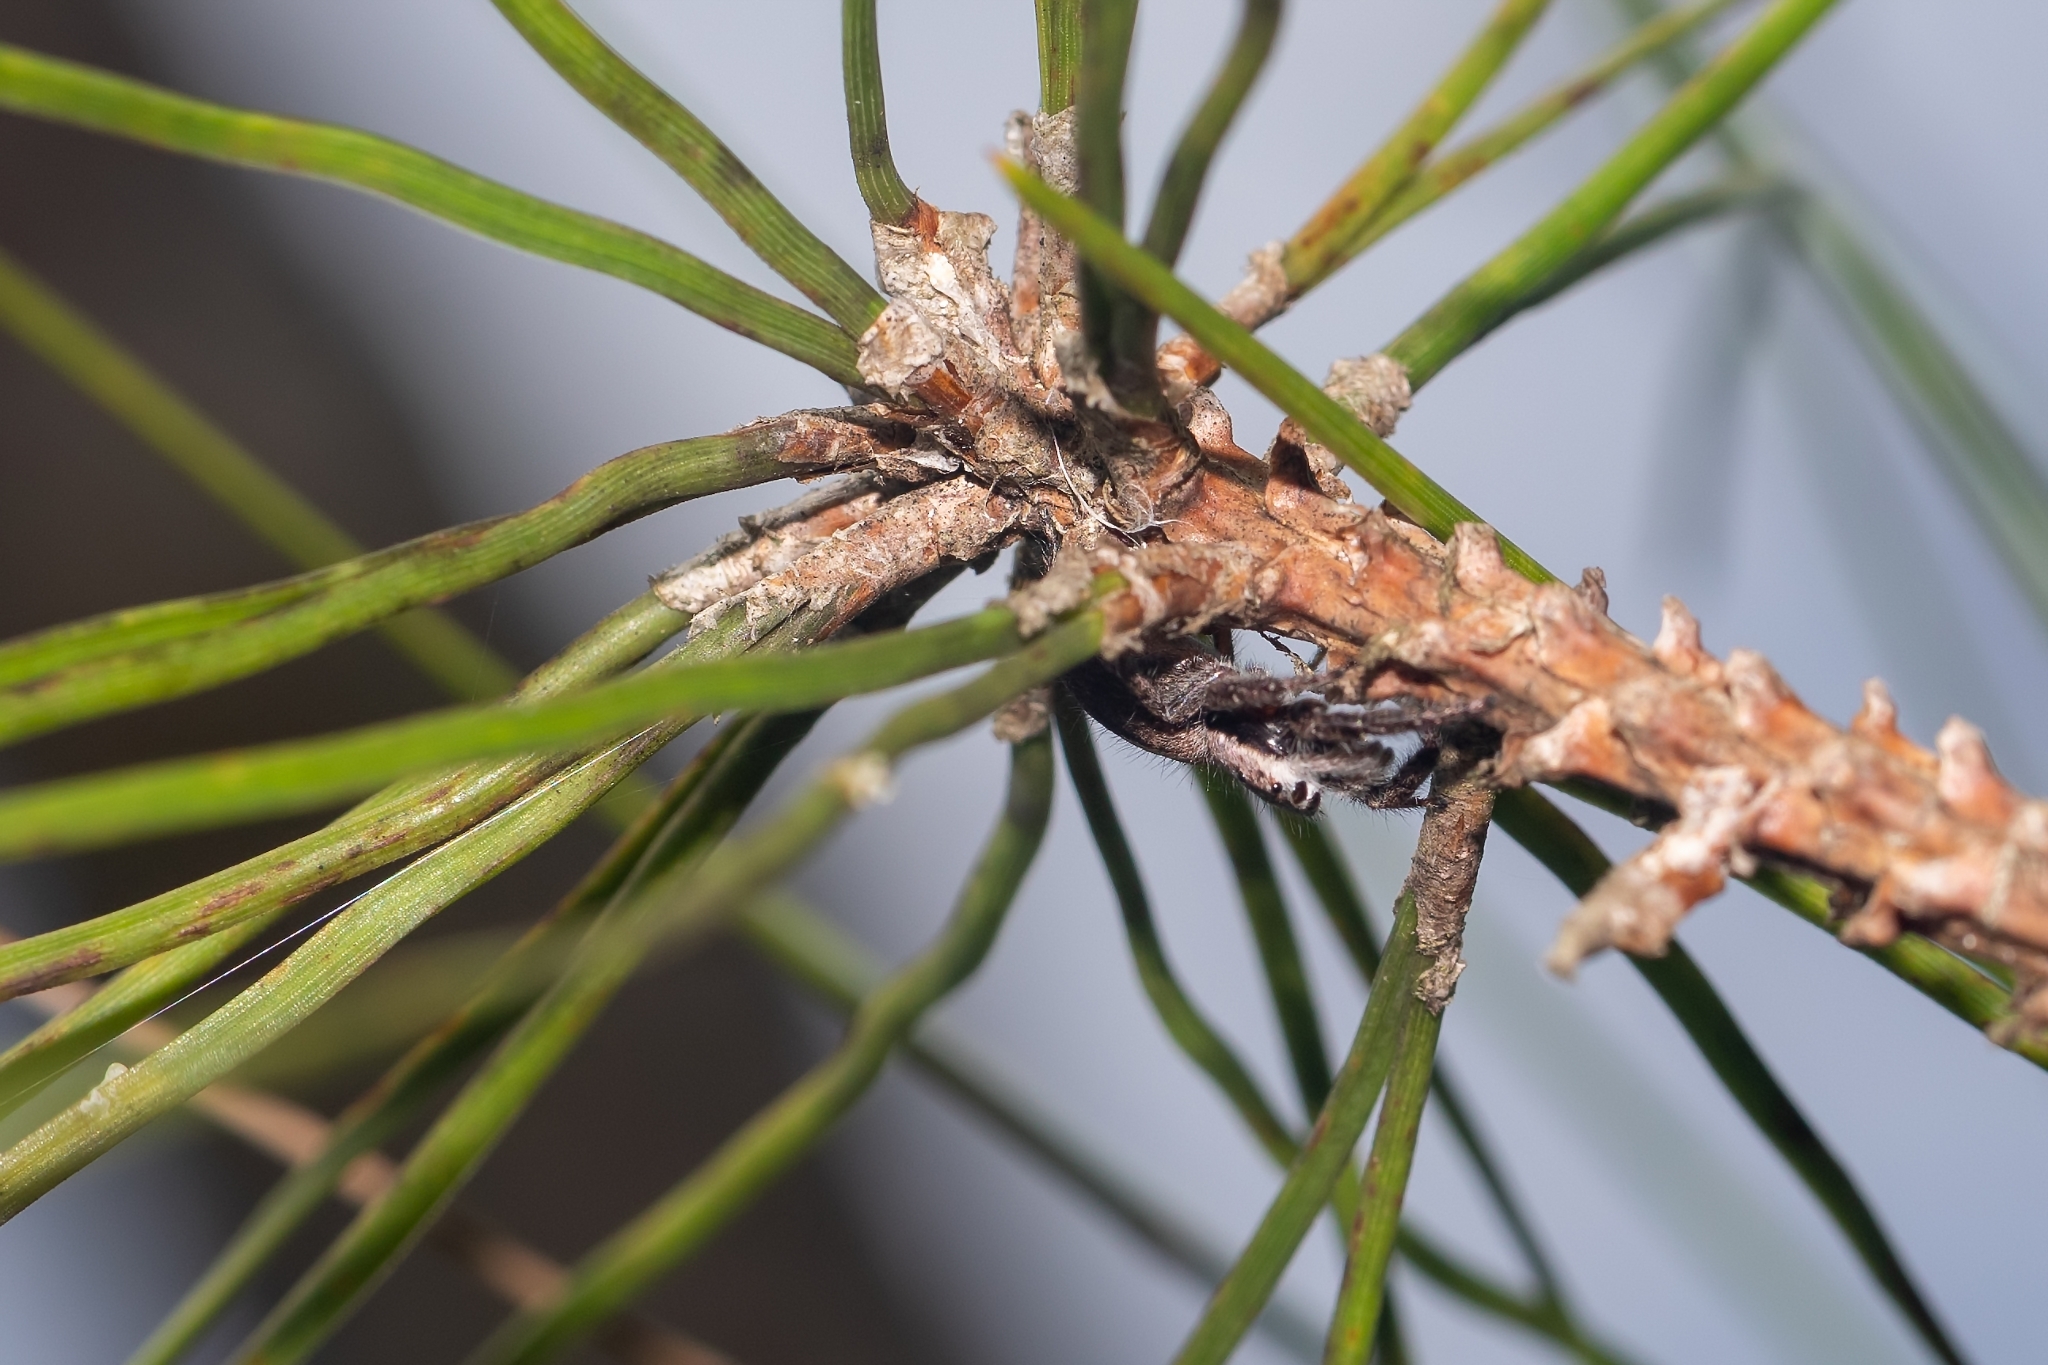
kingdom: Animalia
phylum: Arthropoda
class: Arachnida
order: Araneae
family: Salticidae
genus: Platycryptus
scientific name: Platycryptus undatus
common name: Tan jumping spider
